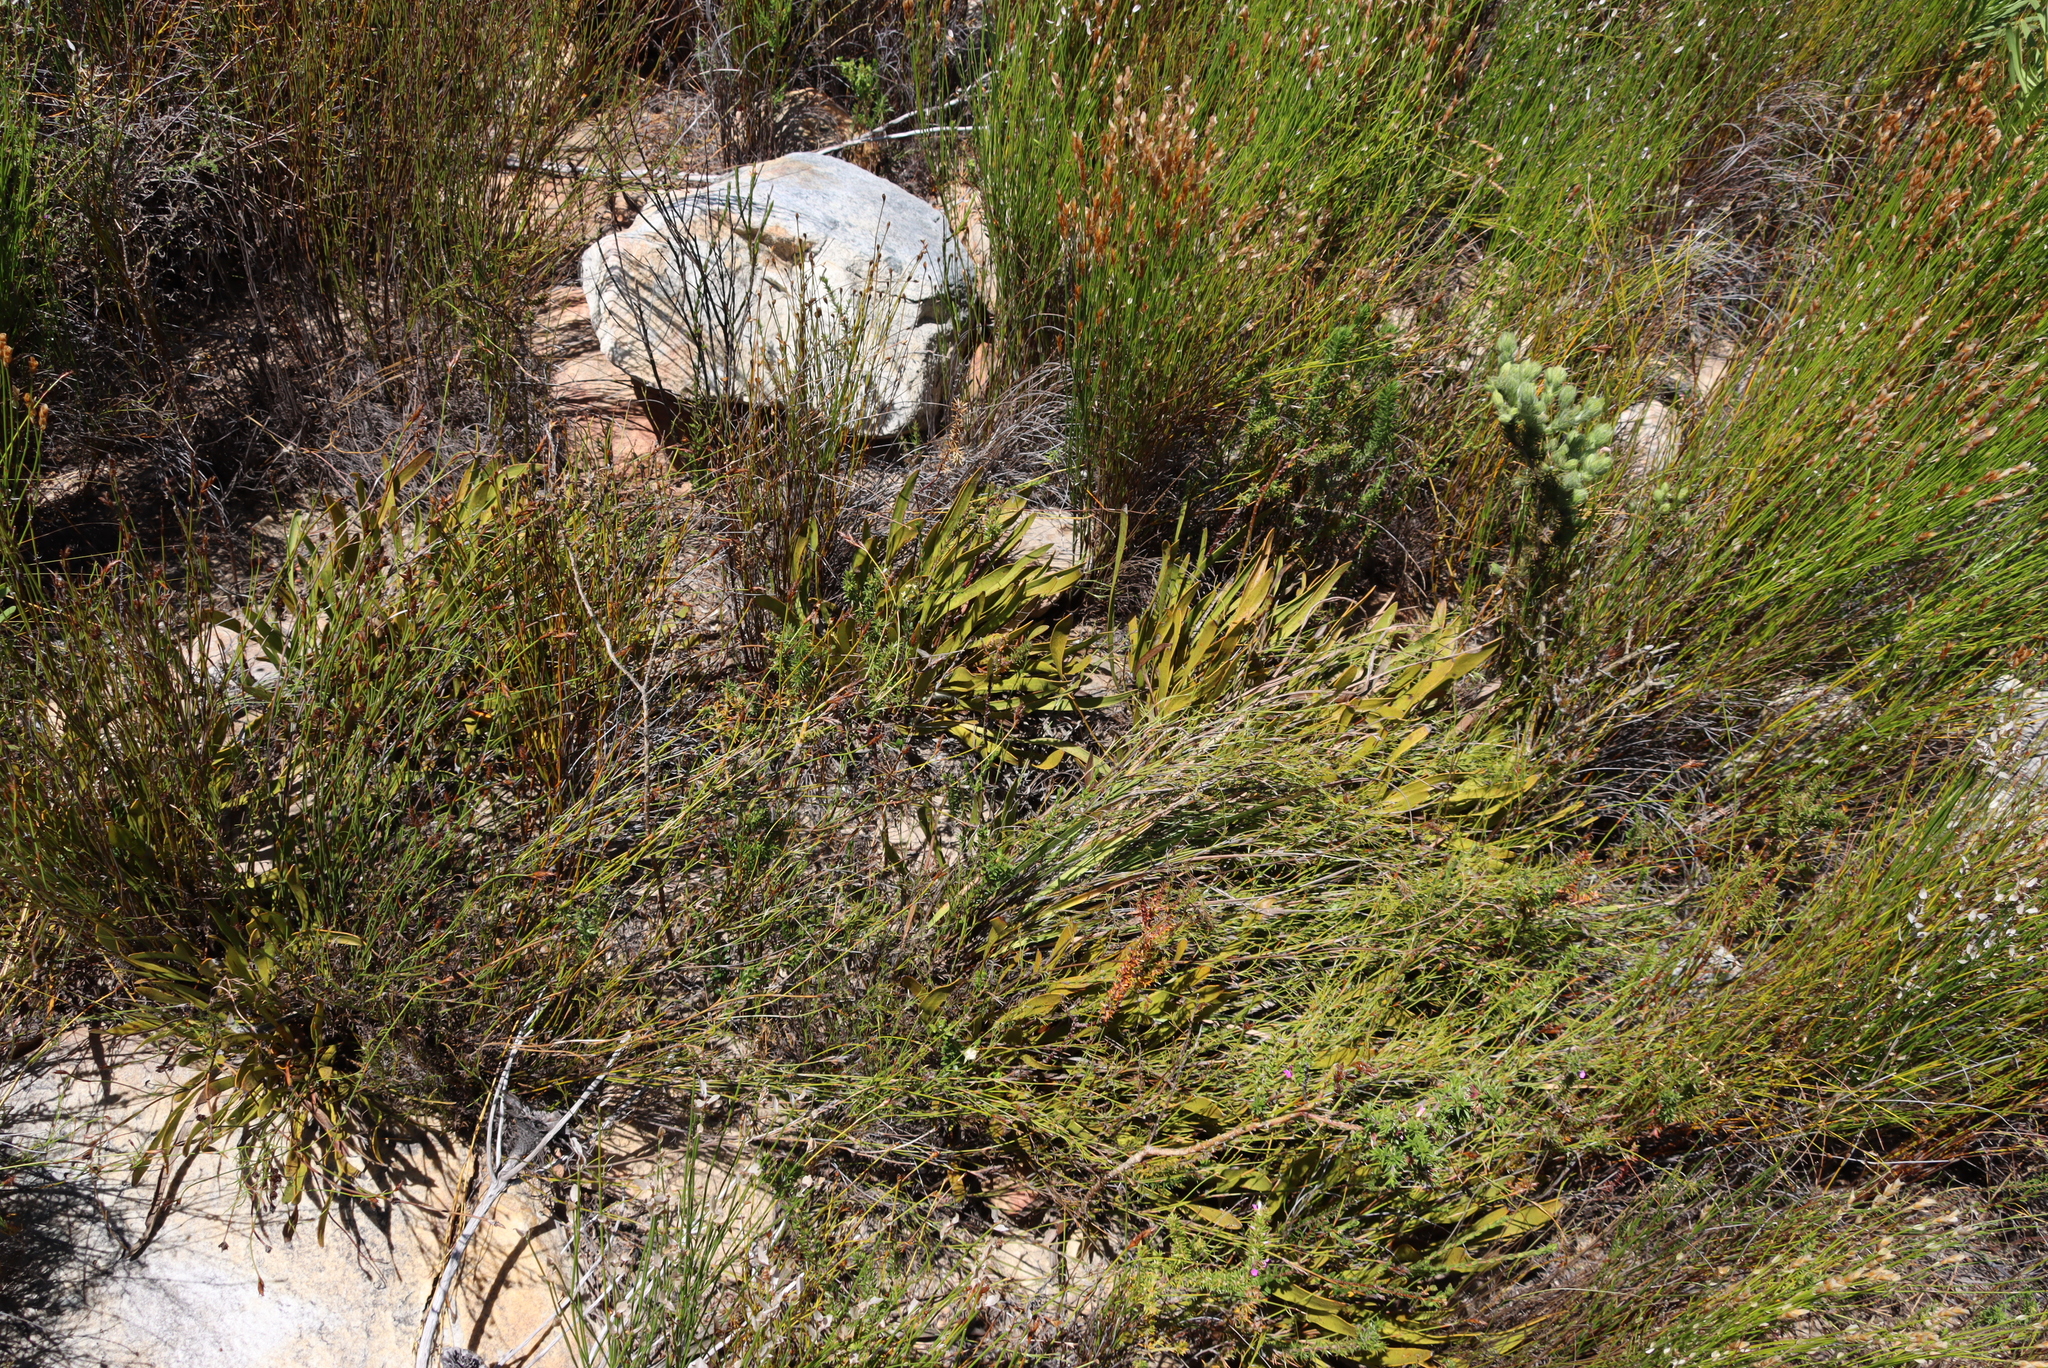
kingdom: Plantae
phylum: Tracheophyta
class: Magnoliopsida
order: Proteales
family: Proteaceae
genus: Protea
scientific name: Protea scabra
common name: Sandpaper-leaf sugarbush
